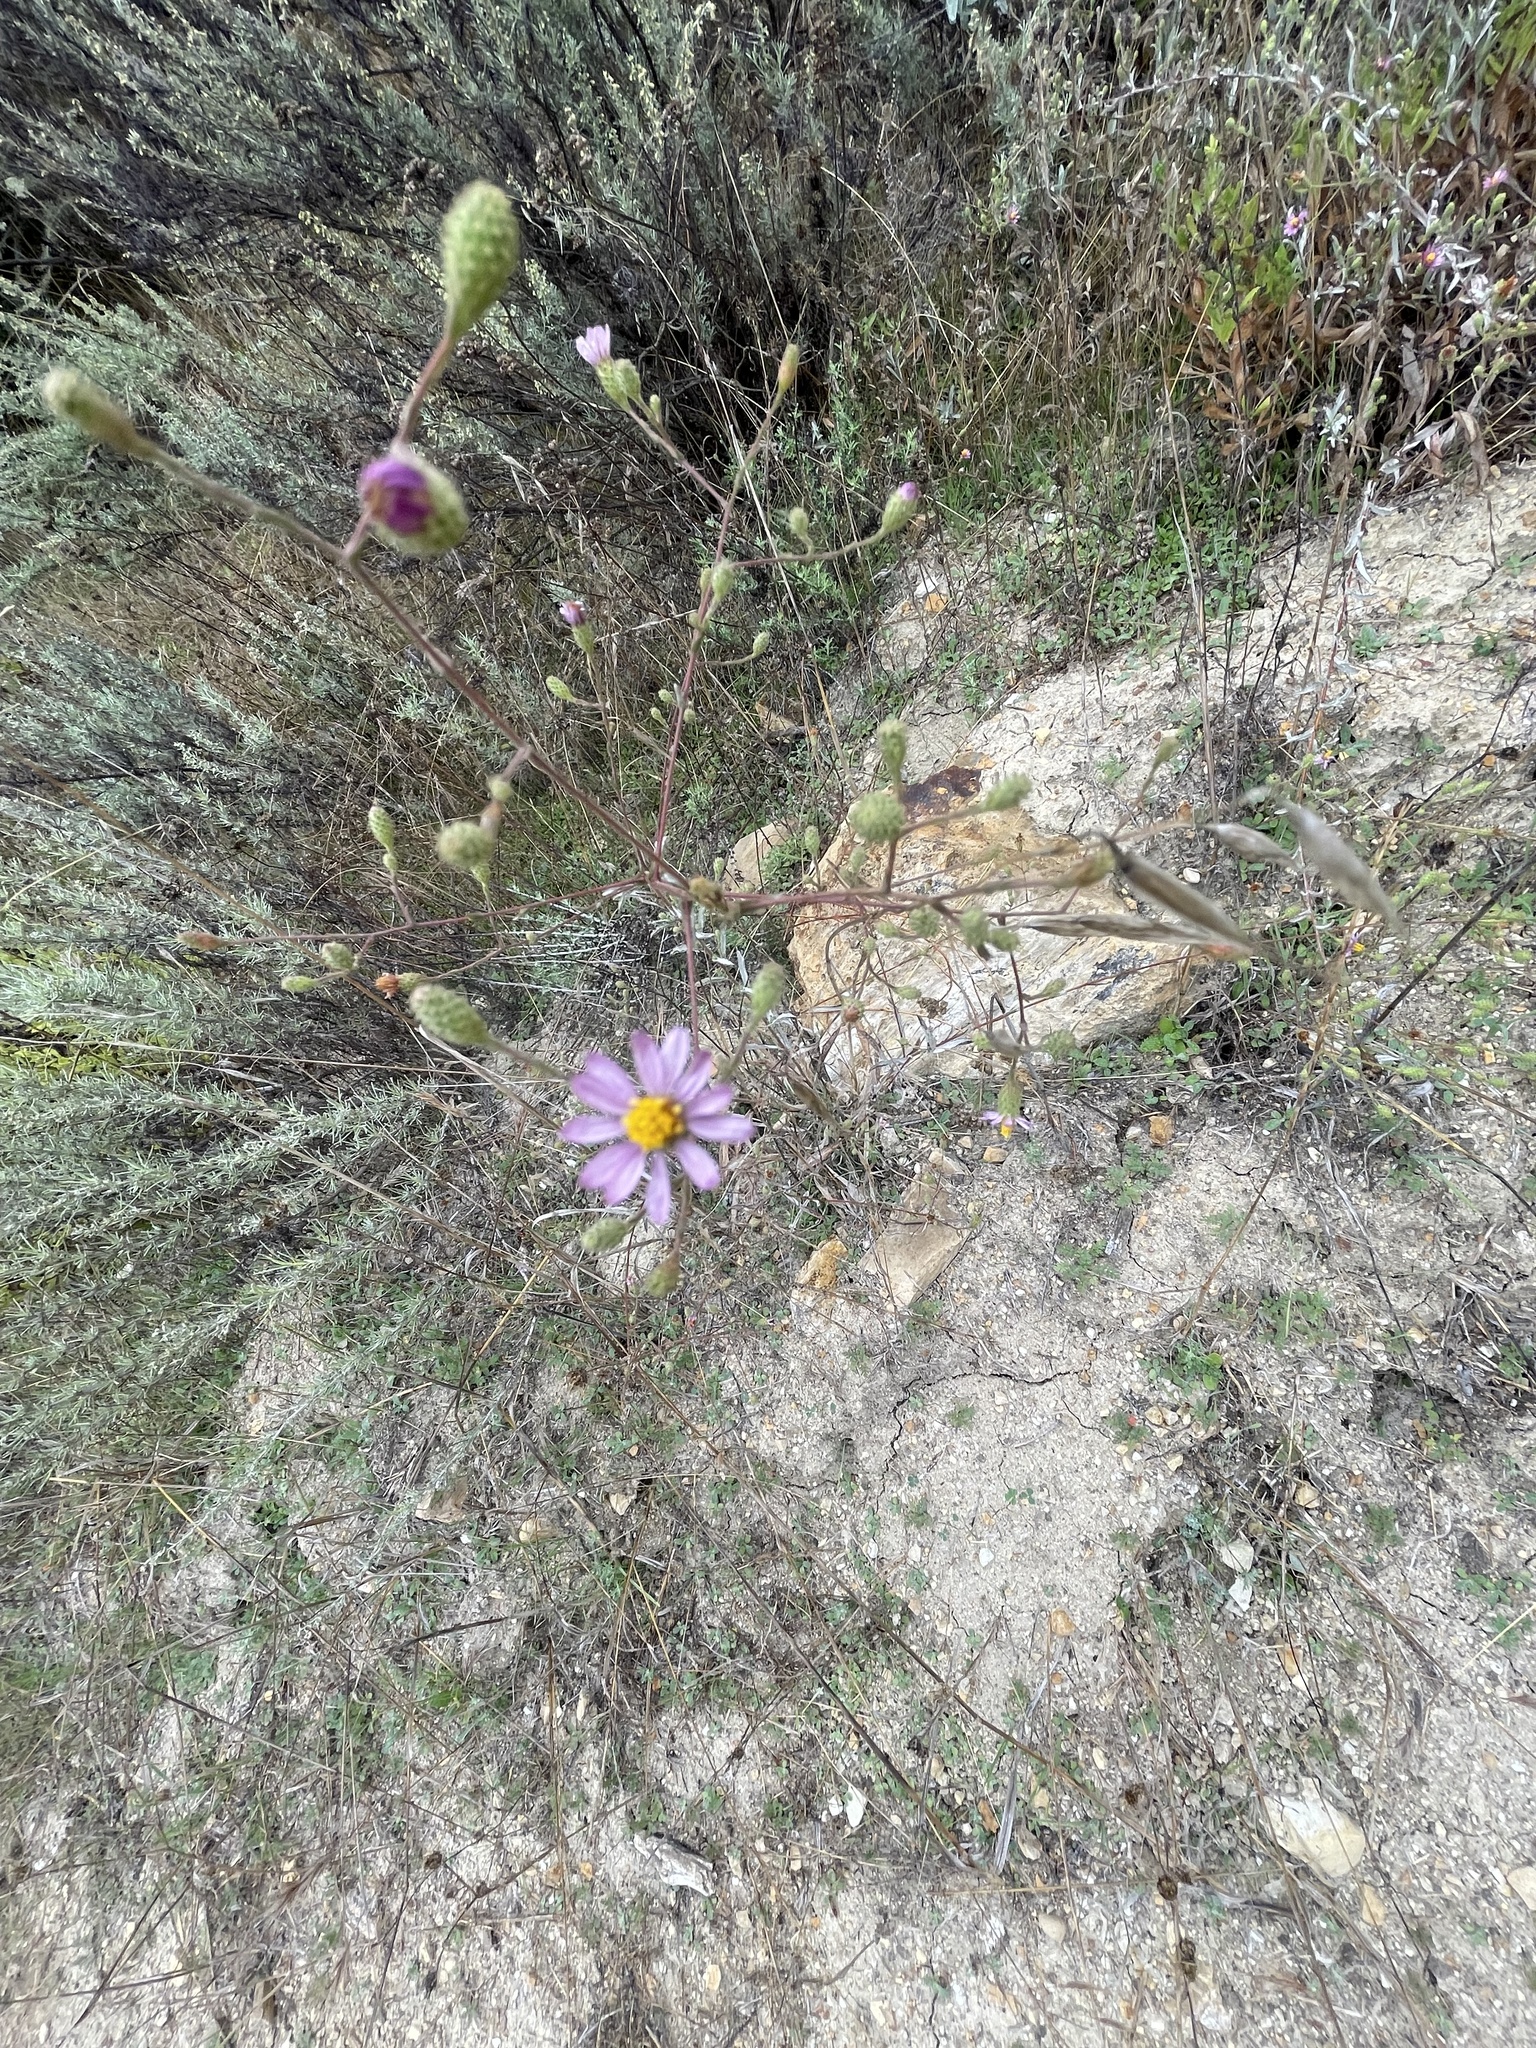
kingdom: Plantae
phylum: Tracheophyta
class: Magnoliopsida
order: Asterales
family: Asteraceae
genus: Corethrogyne
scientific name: Corethrogyne filaginifolia
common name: Sand-aster
